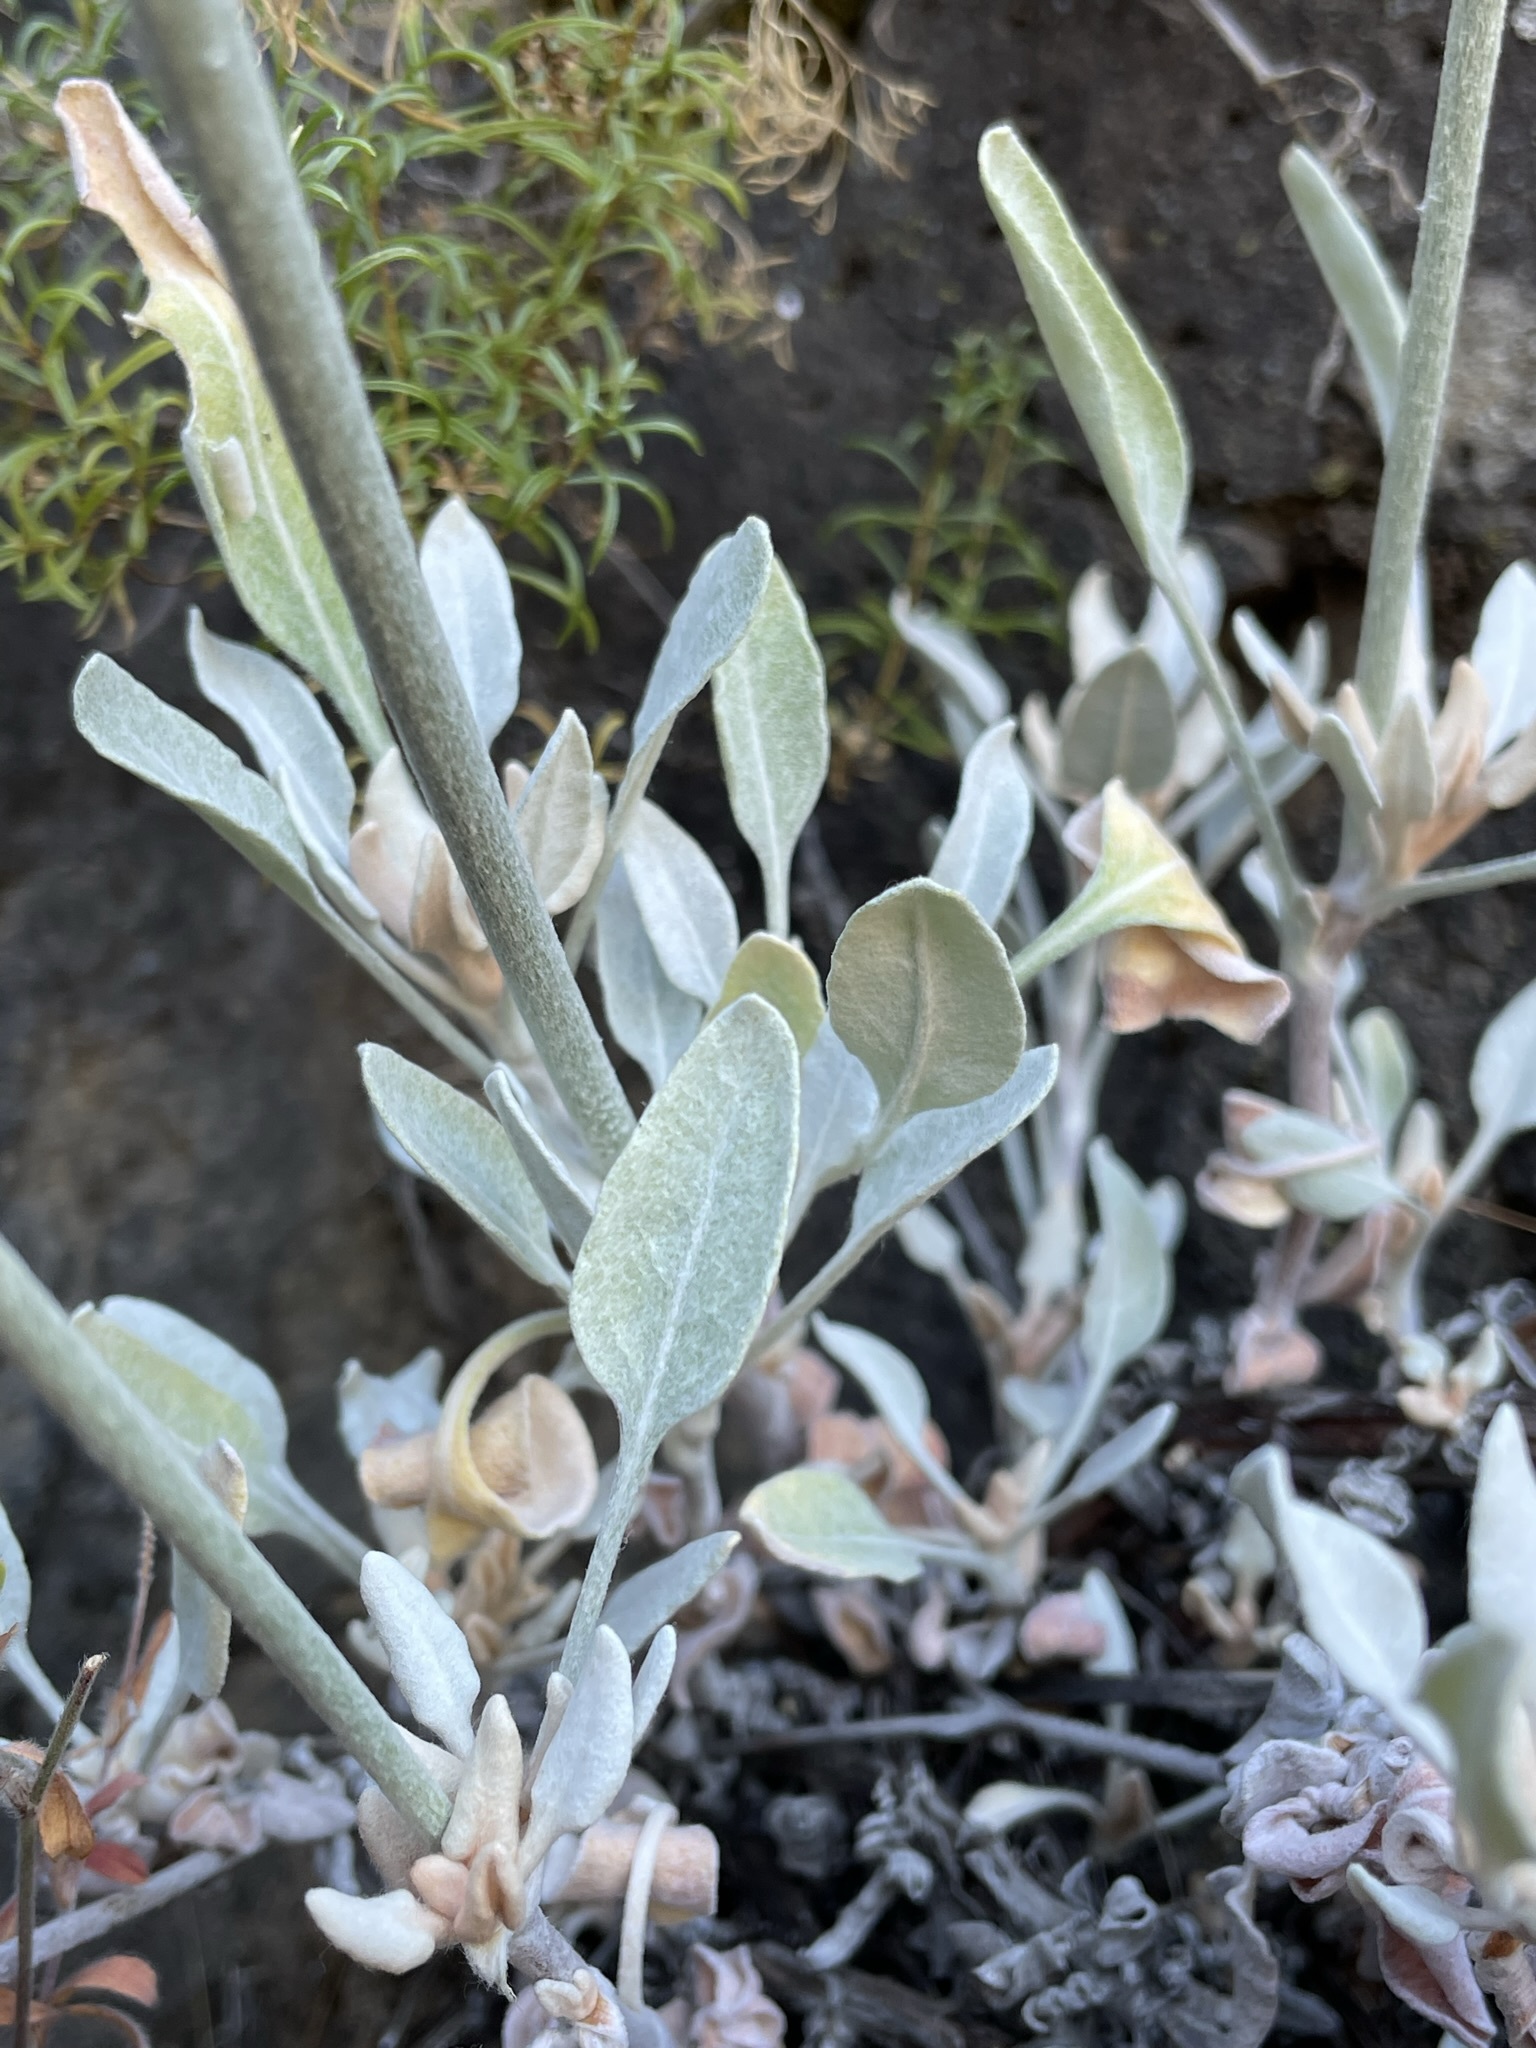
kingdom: Plantae
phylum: Tracheophyta
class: Magnoliopsida
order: Caryophyllales
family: Polygonaceae
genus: Eriogonum
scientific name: Eriogonum niveum
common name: Snow wild buckwheat
